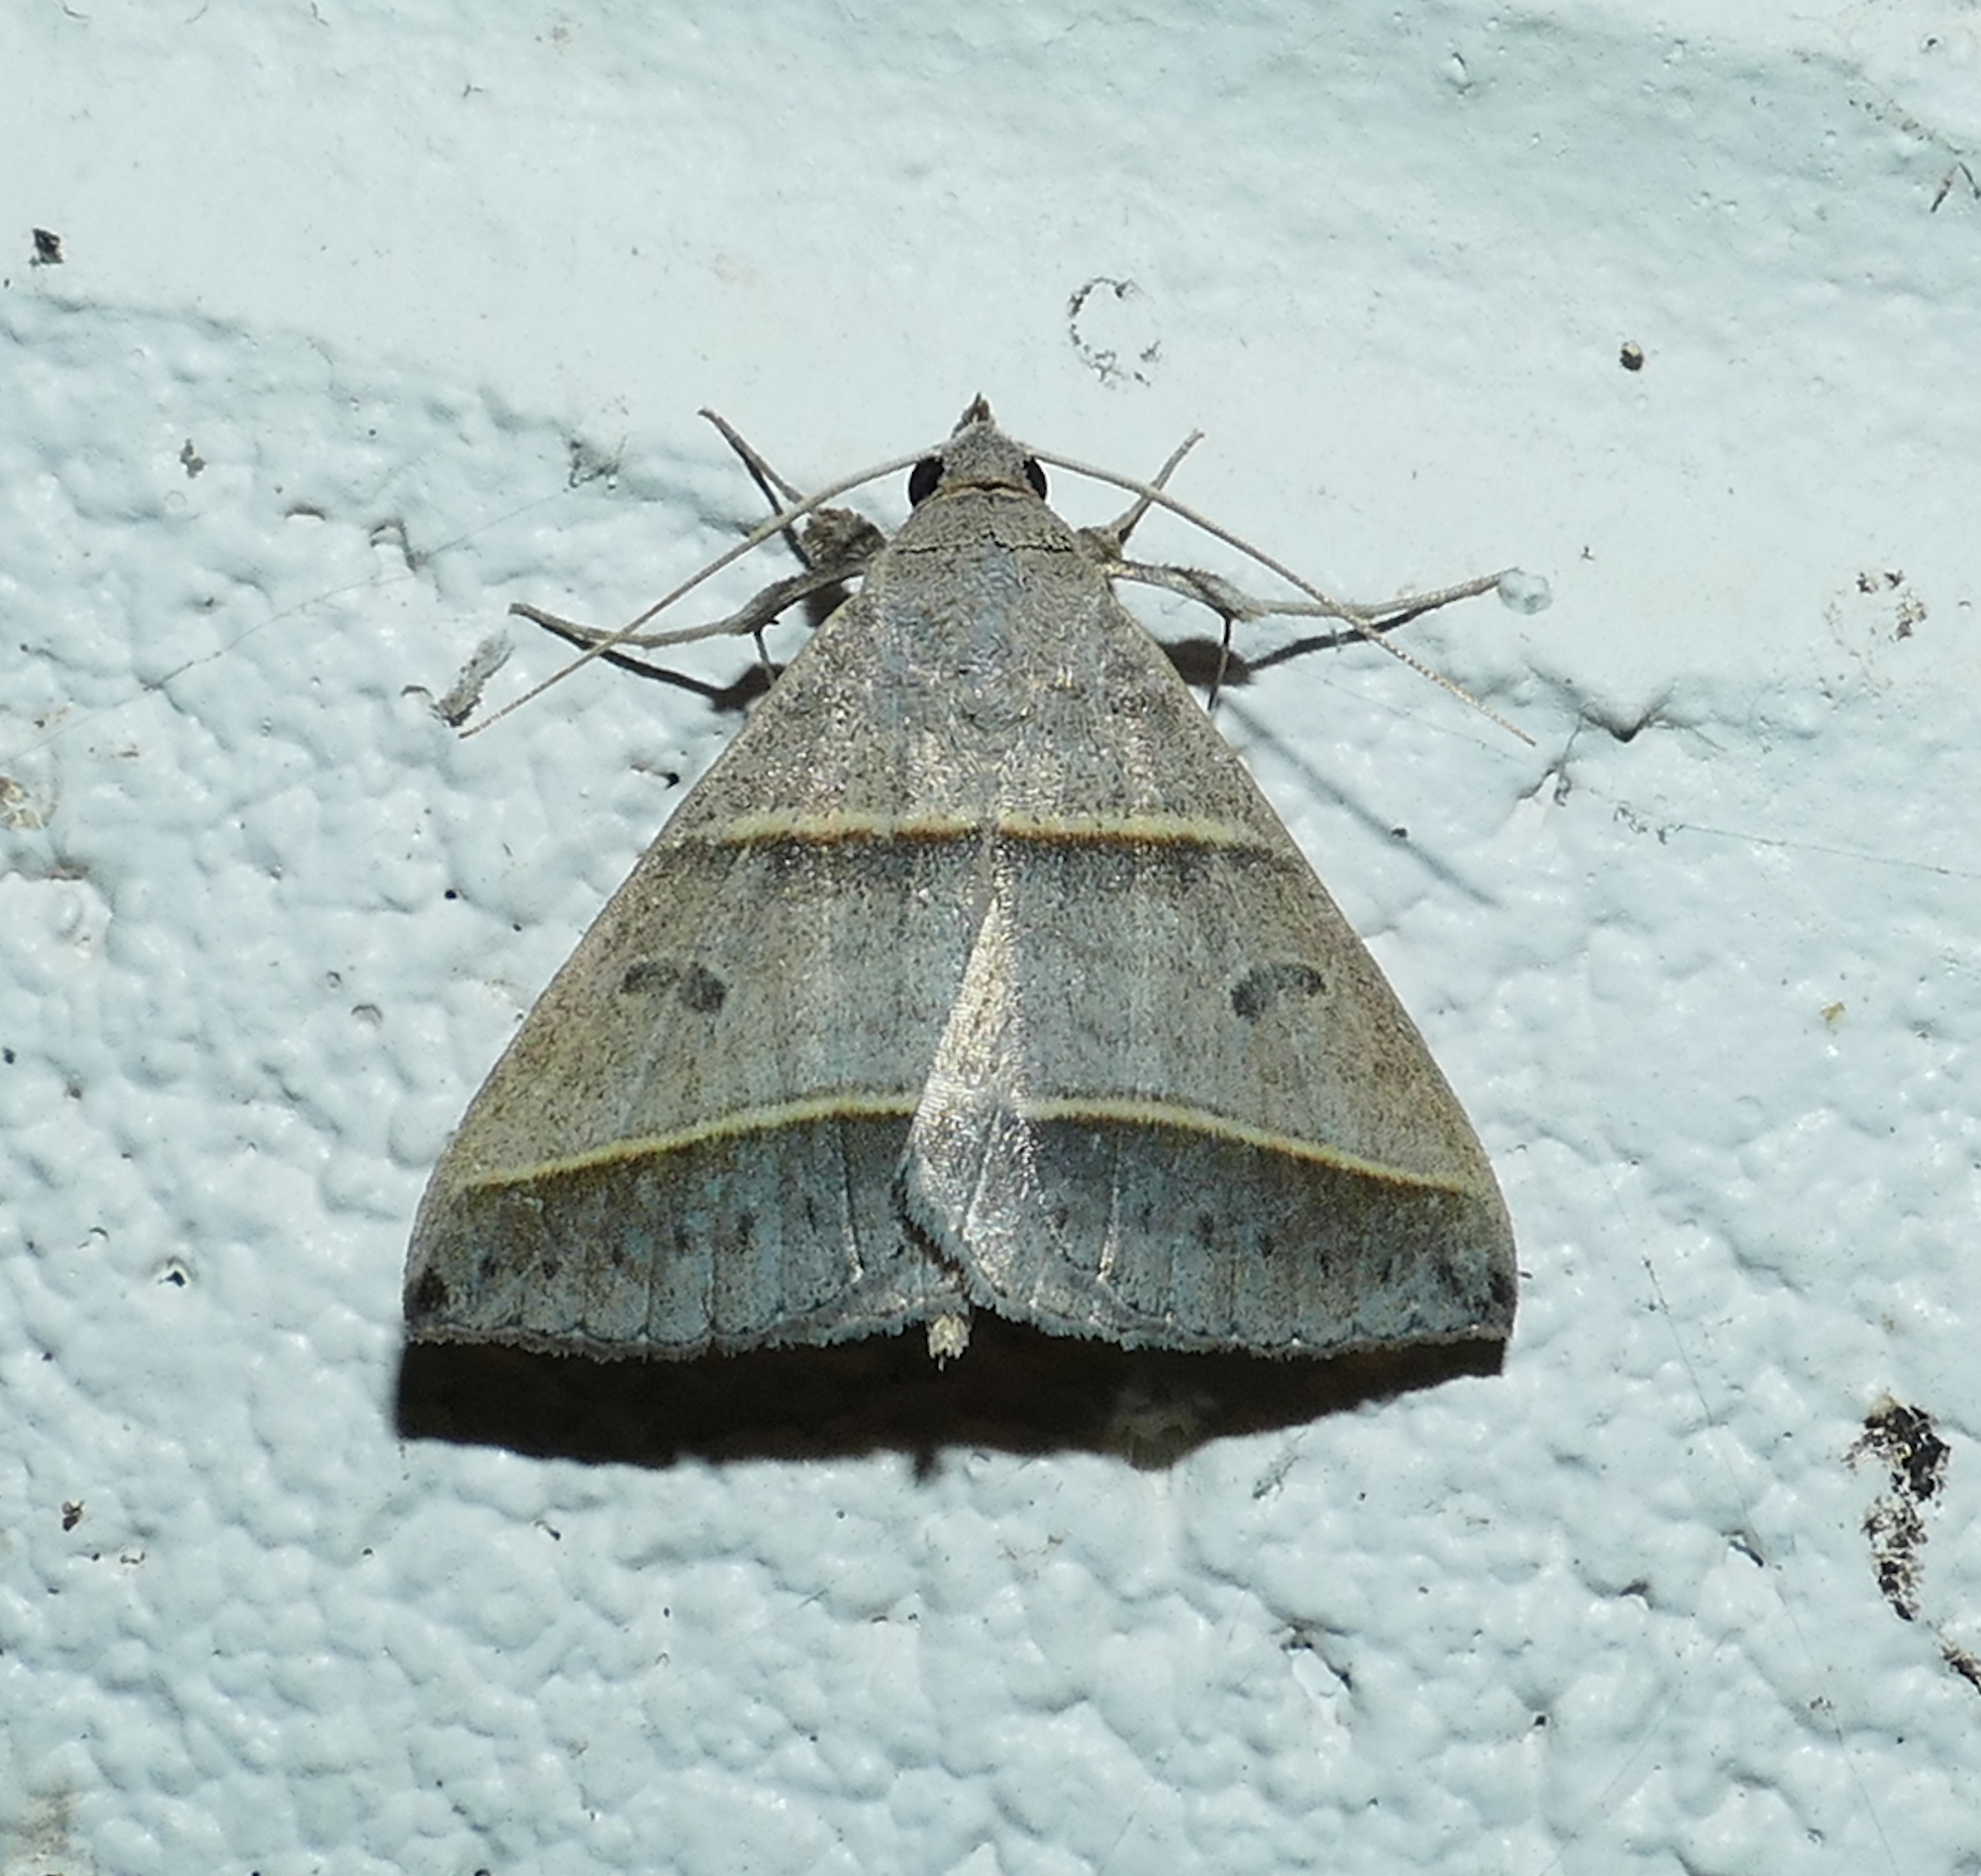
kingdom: Animalia
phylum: Arthropoda
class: Insecta
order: Lepidoptera
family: Erebidae
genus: Ptichodis
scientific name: Ptichodis vinculum
